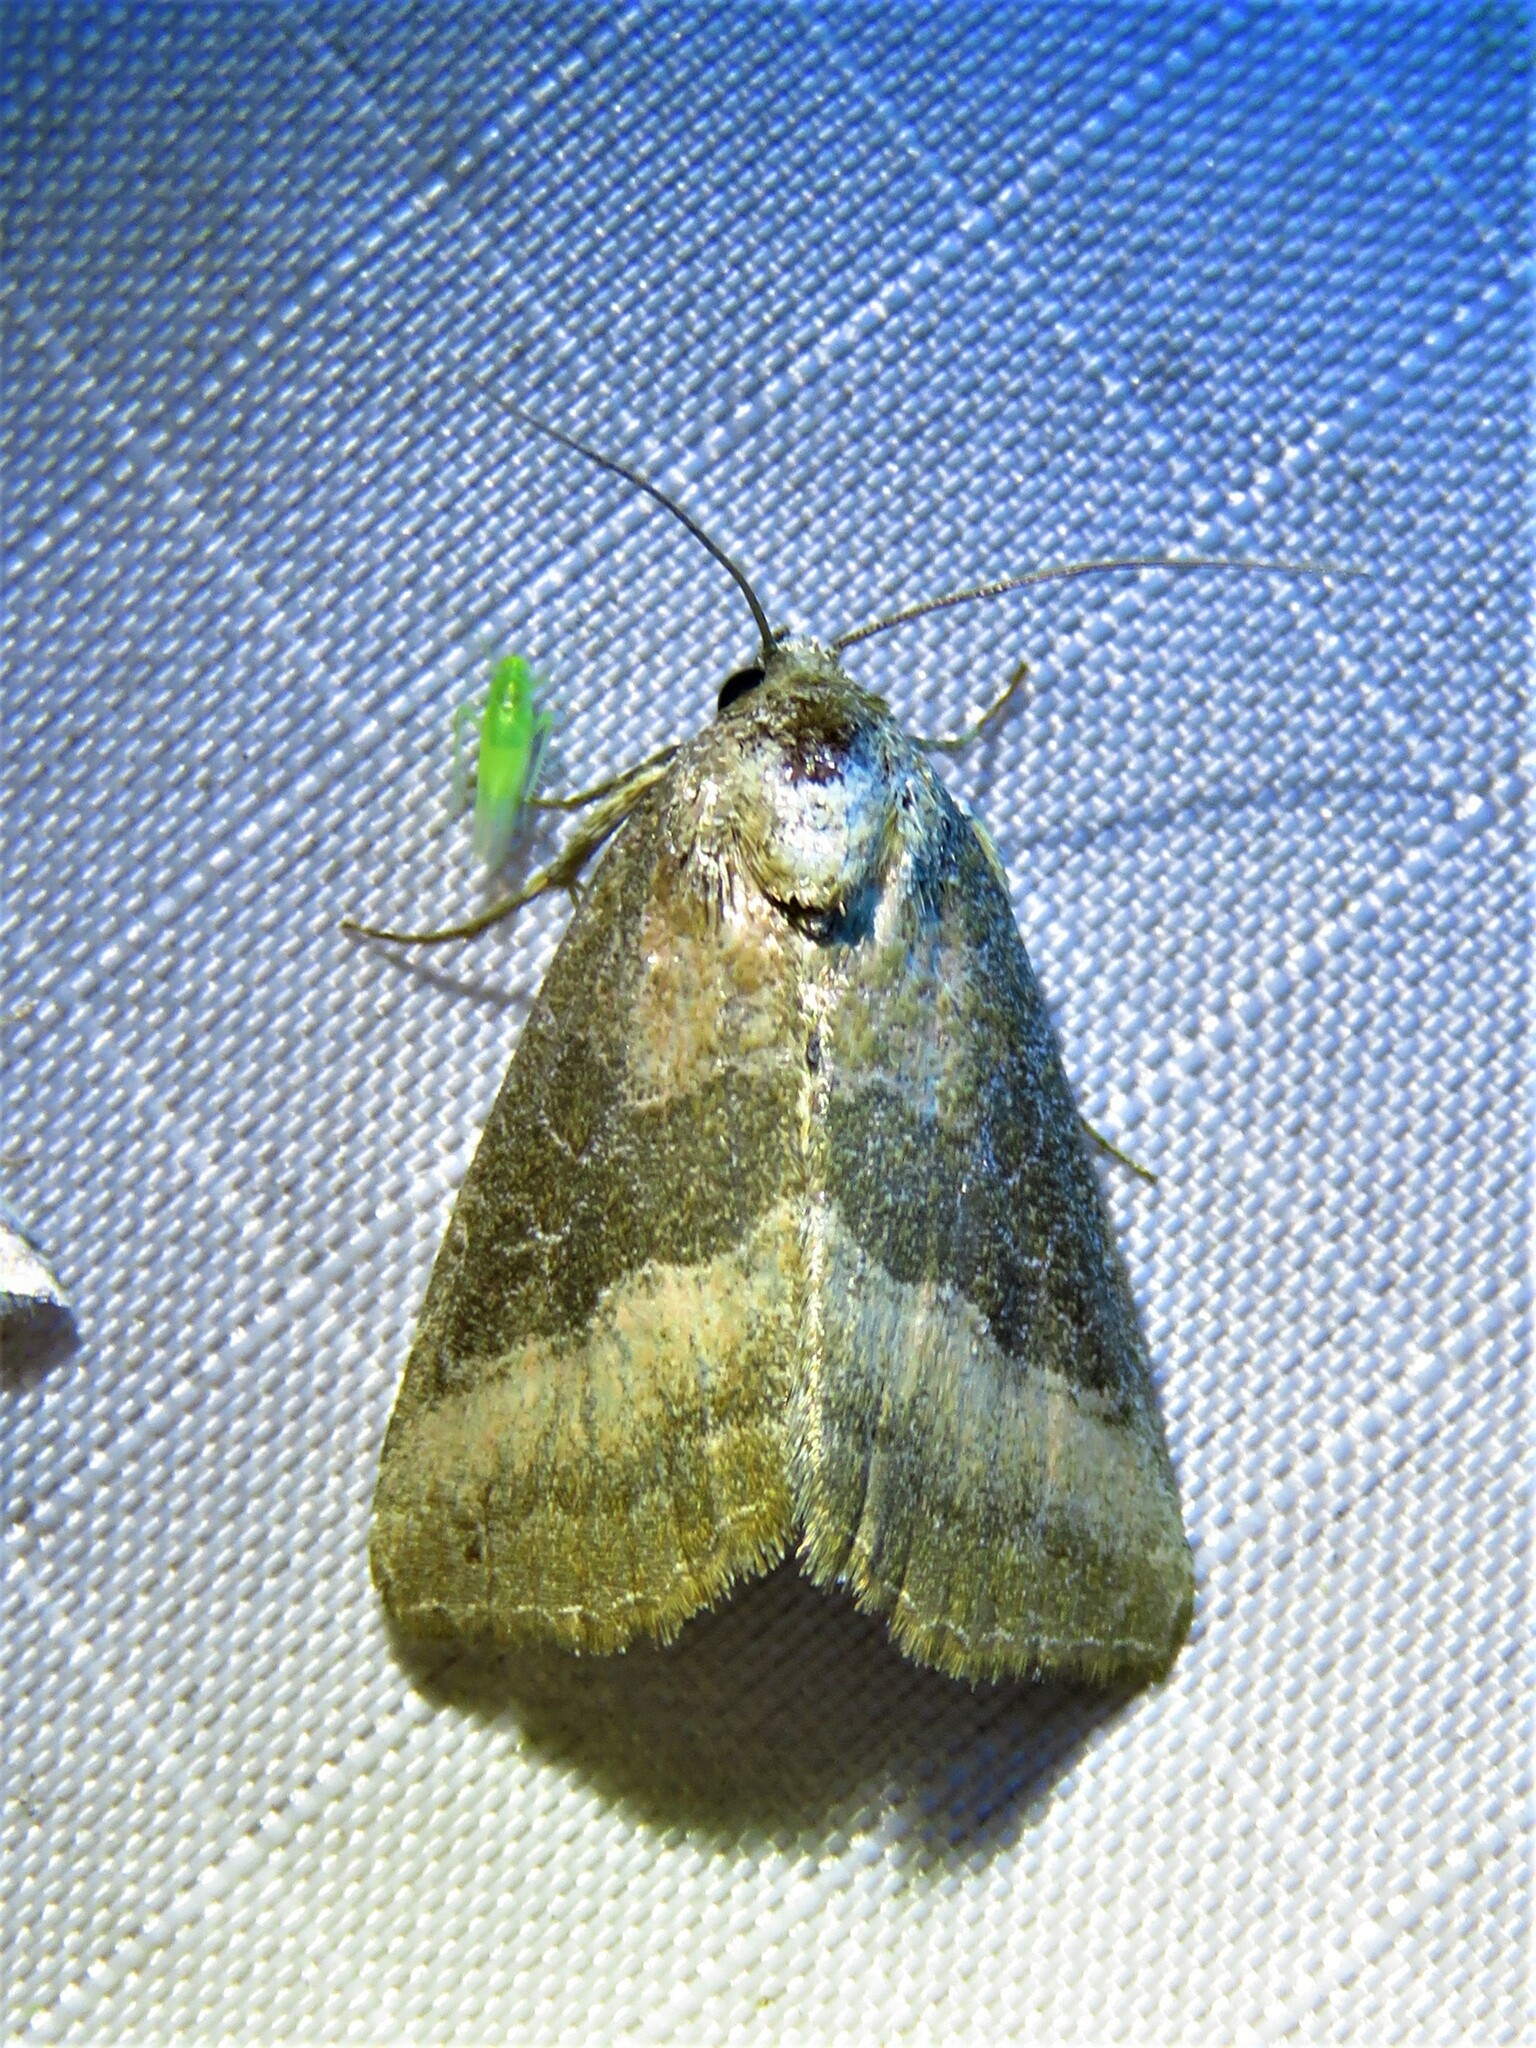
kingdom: Animalia
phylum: Arthropoda
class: Insecta
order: Lepidoptera
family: Noctuidae
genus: Ogdoconta
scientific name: Ogdoconta cinereola
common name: Common pinkband
